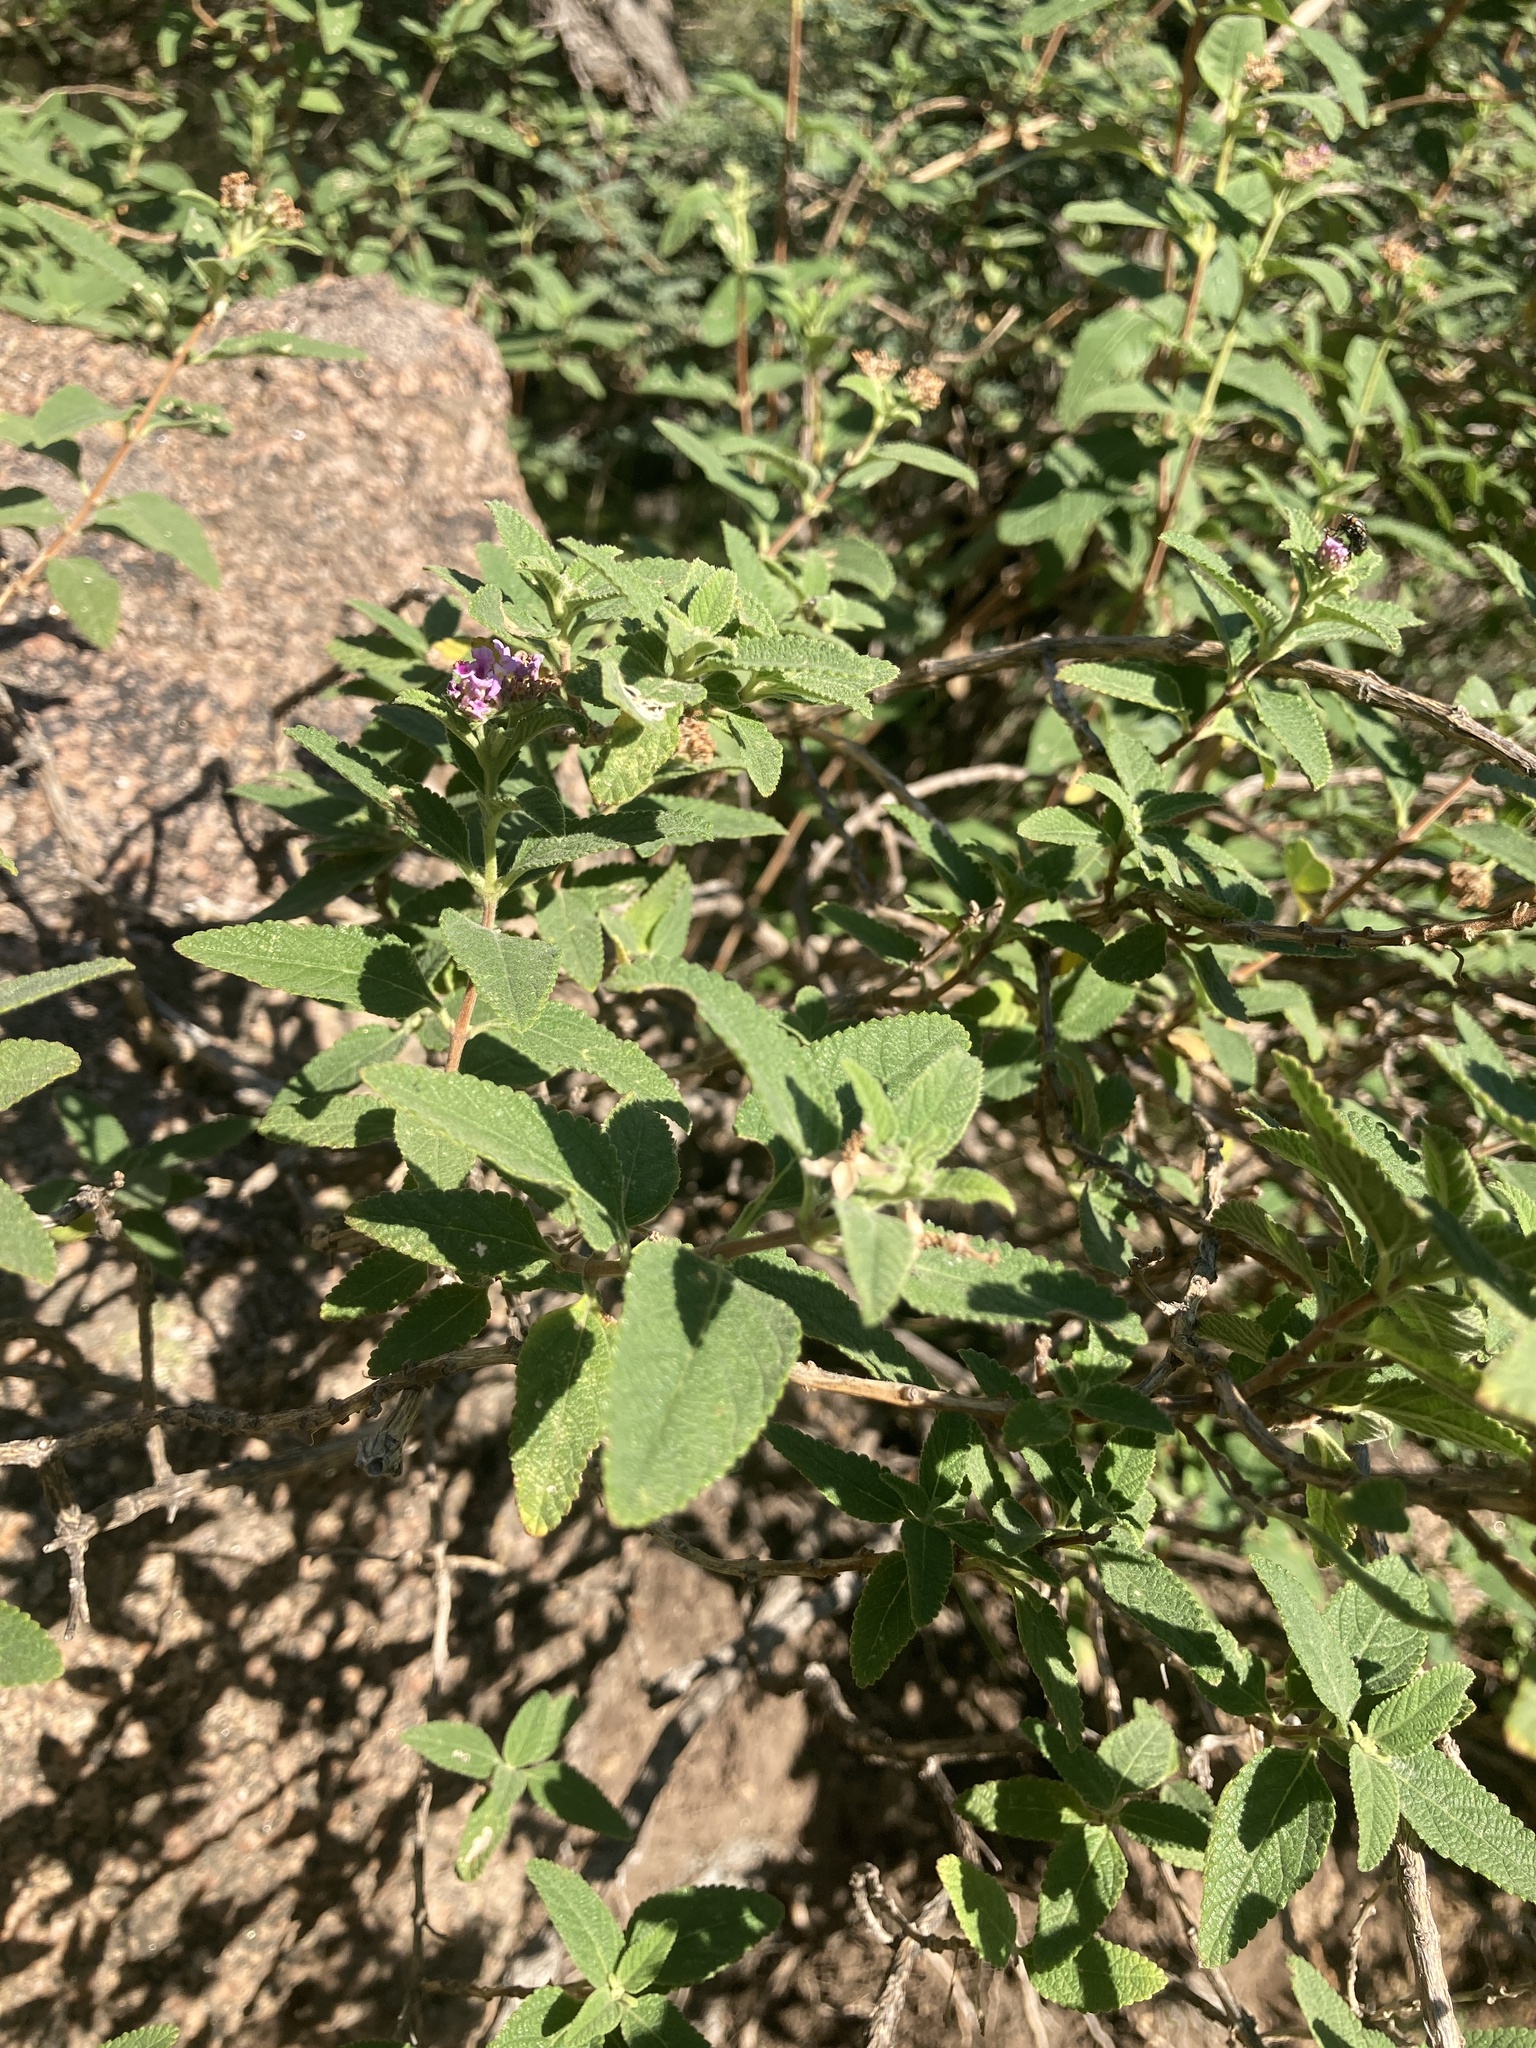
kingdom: Plantae
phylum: Tracheophyta
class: Magnoliopsida
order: Lamiales
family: Verbenaceae
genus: Lippia
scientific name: Lippia junelliana
